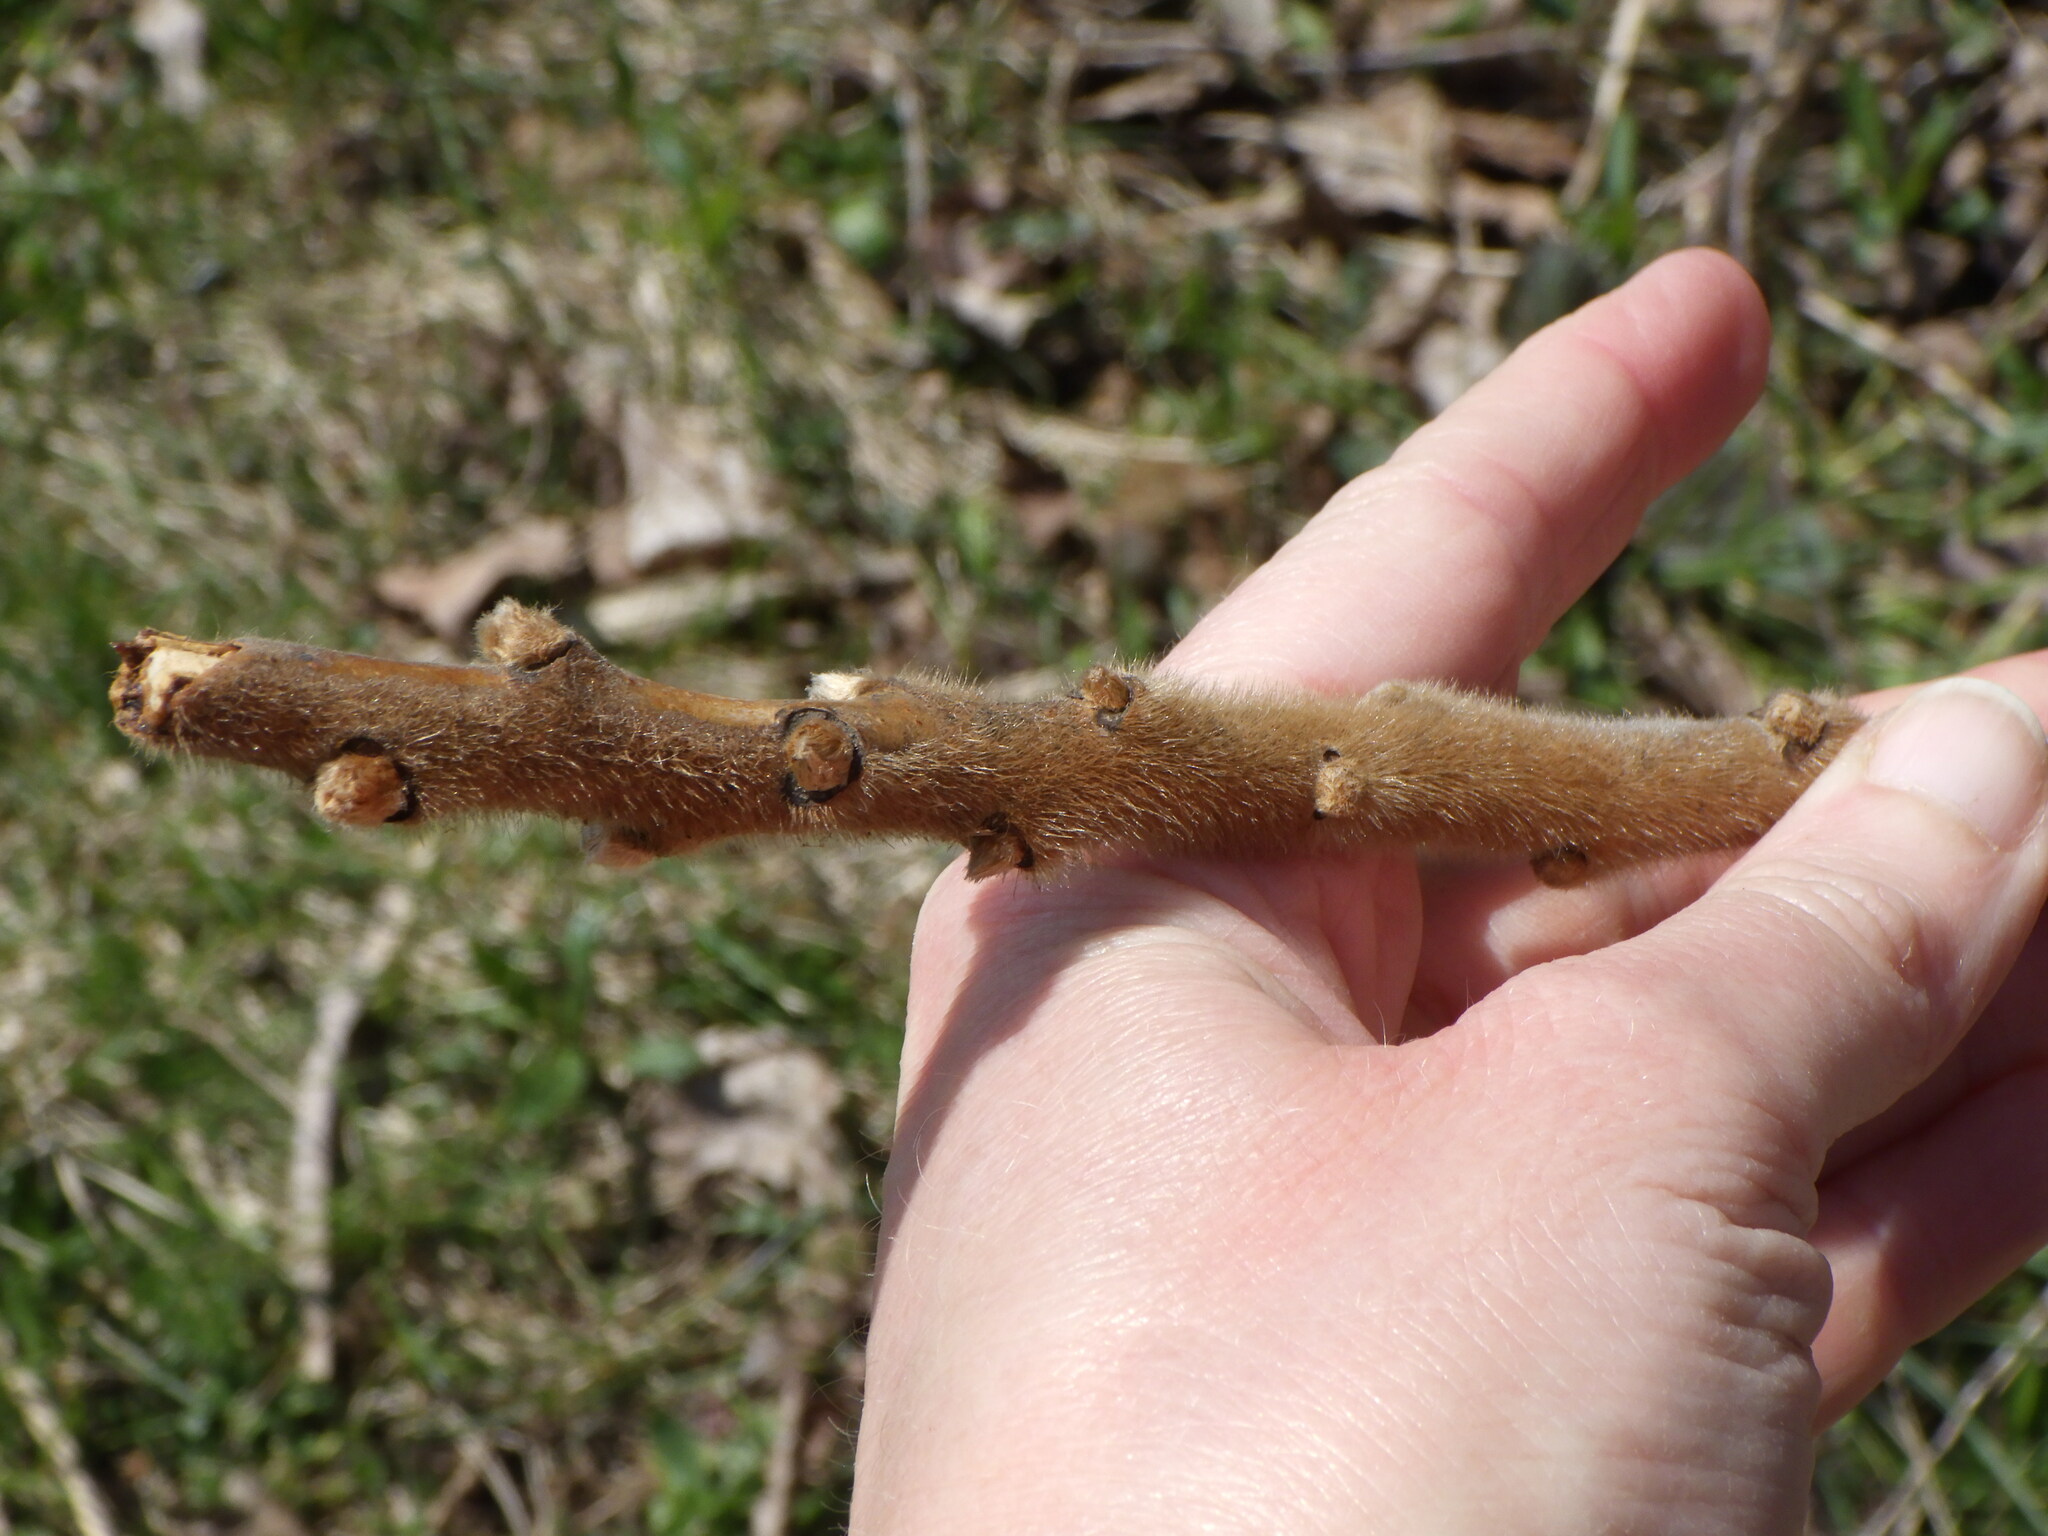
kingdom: Plantae
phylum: Tracheophyta
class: Magnoliopsida
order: Sapindales
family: Anacardiaceae
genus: Rhus
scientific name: Rhus typhina
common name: Staghorn sumac
